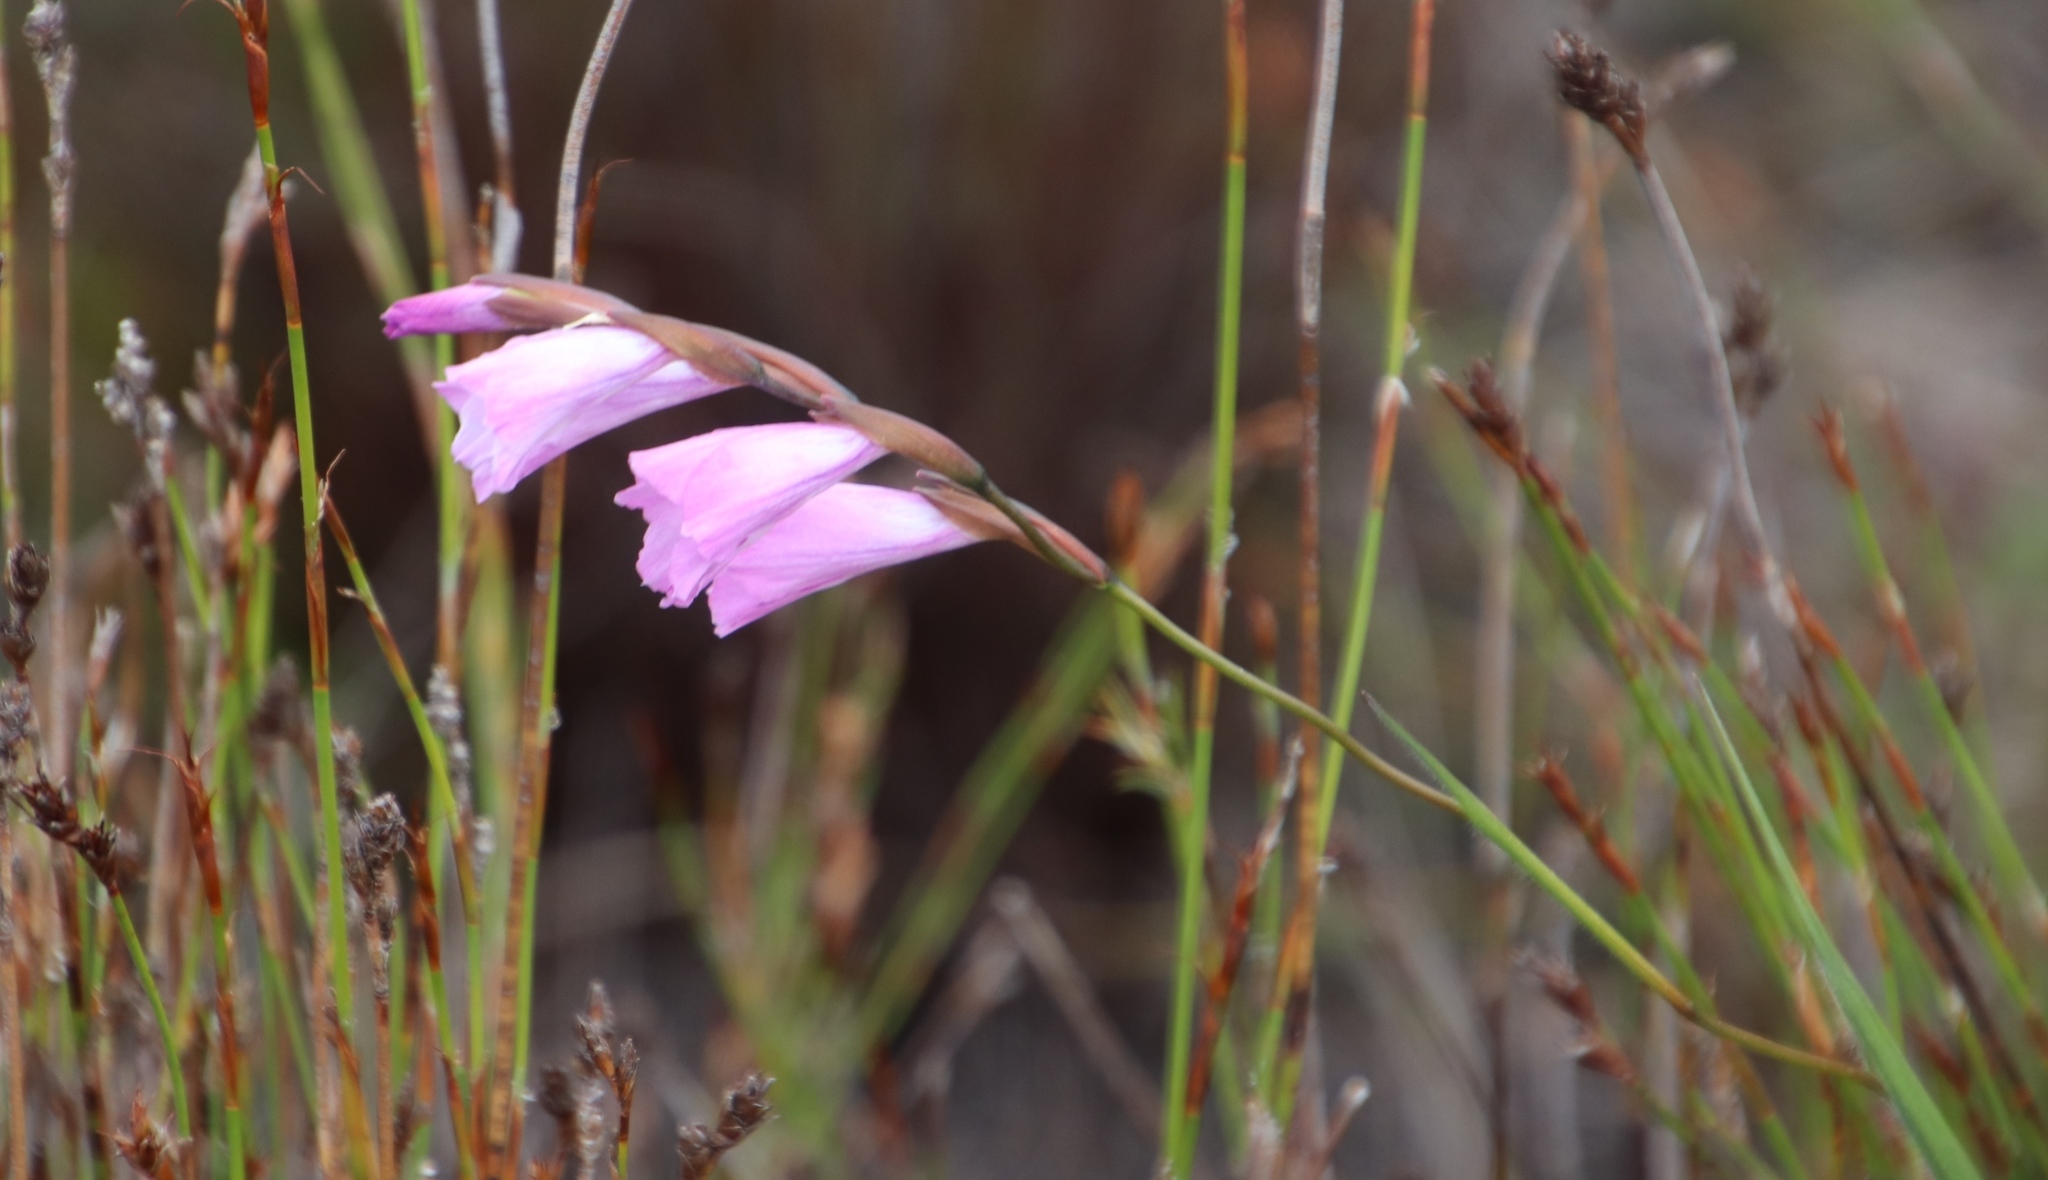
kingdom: Plantae
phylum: Tracheophyta
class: Liliopsida
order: Asparagales
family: Iridaceae
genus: Gladiolus
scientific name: Gladiolus hirsutus
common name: Small pink afrikaner
